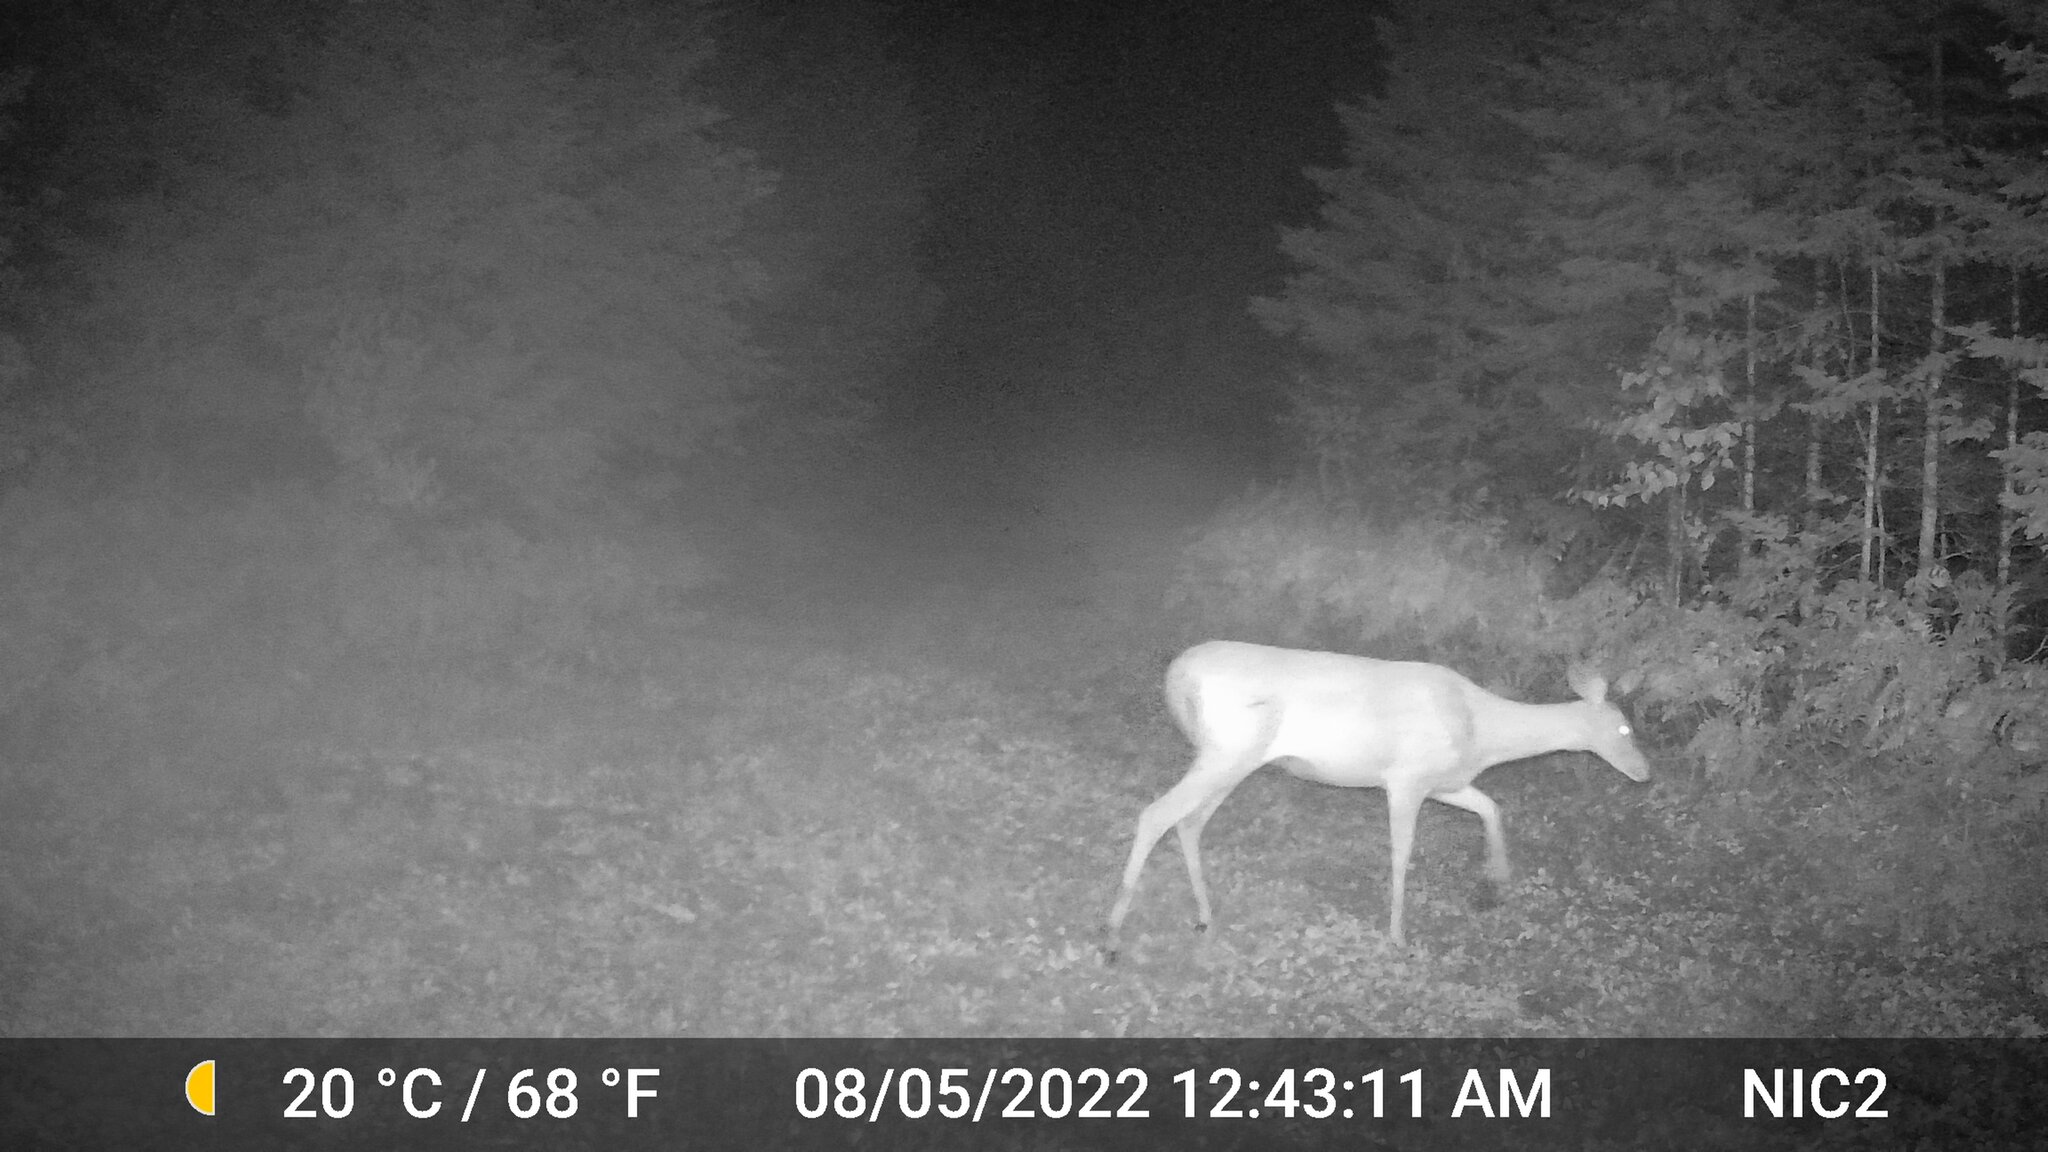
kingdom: Animalia
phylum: Chordata
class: Mammalia
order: Artiodactyla
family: Cervidae
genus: Odocoileus
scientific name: Odocoileus virginianus
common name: White-tailed deer
